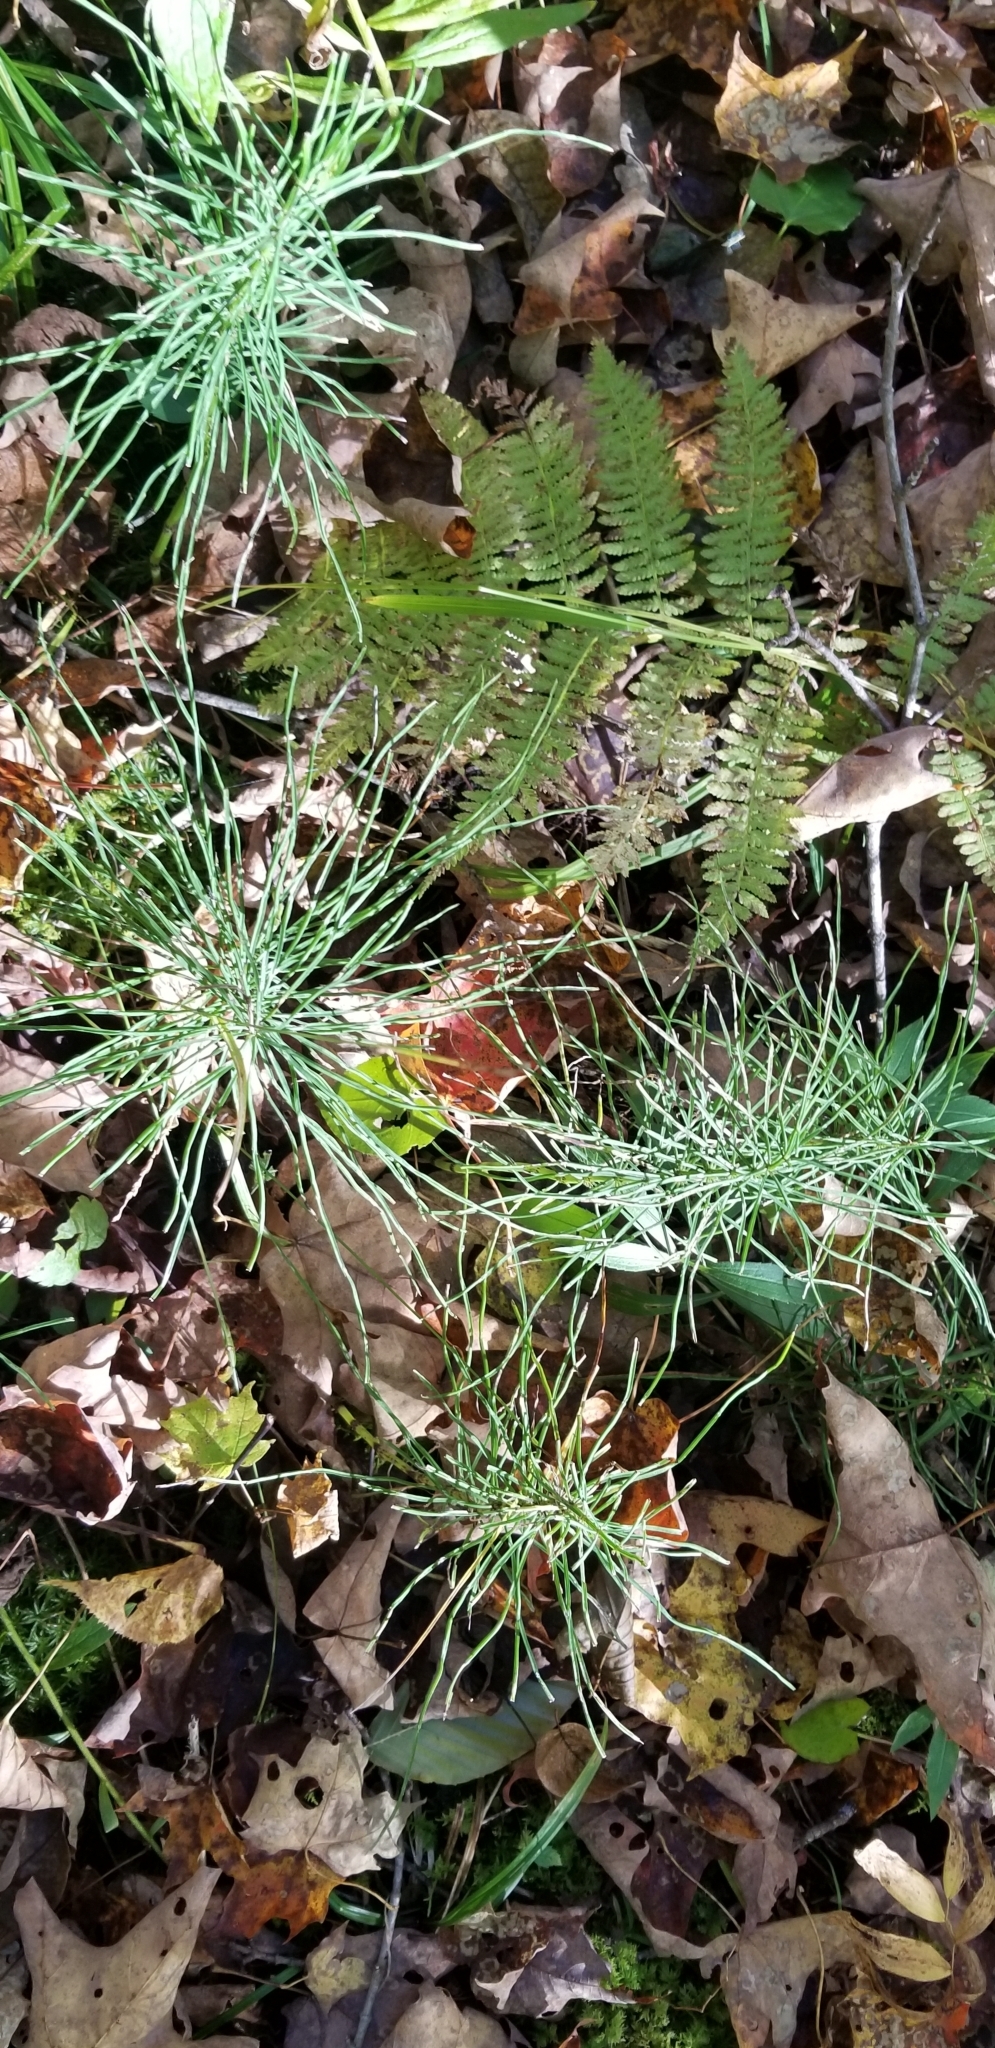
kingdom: Plantae
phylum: Tracheophyta
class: Polypodiopsida
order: Equisetales
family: Equisetaceae
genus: Equisetum
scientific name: Equisetum arvense
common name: Field horsetail
